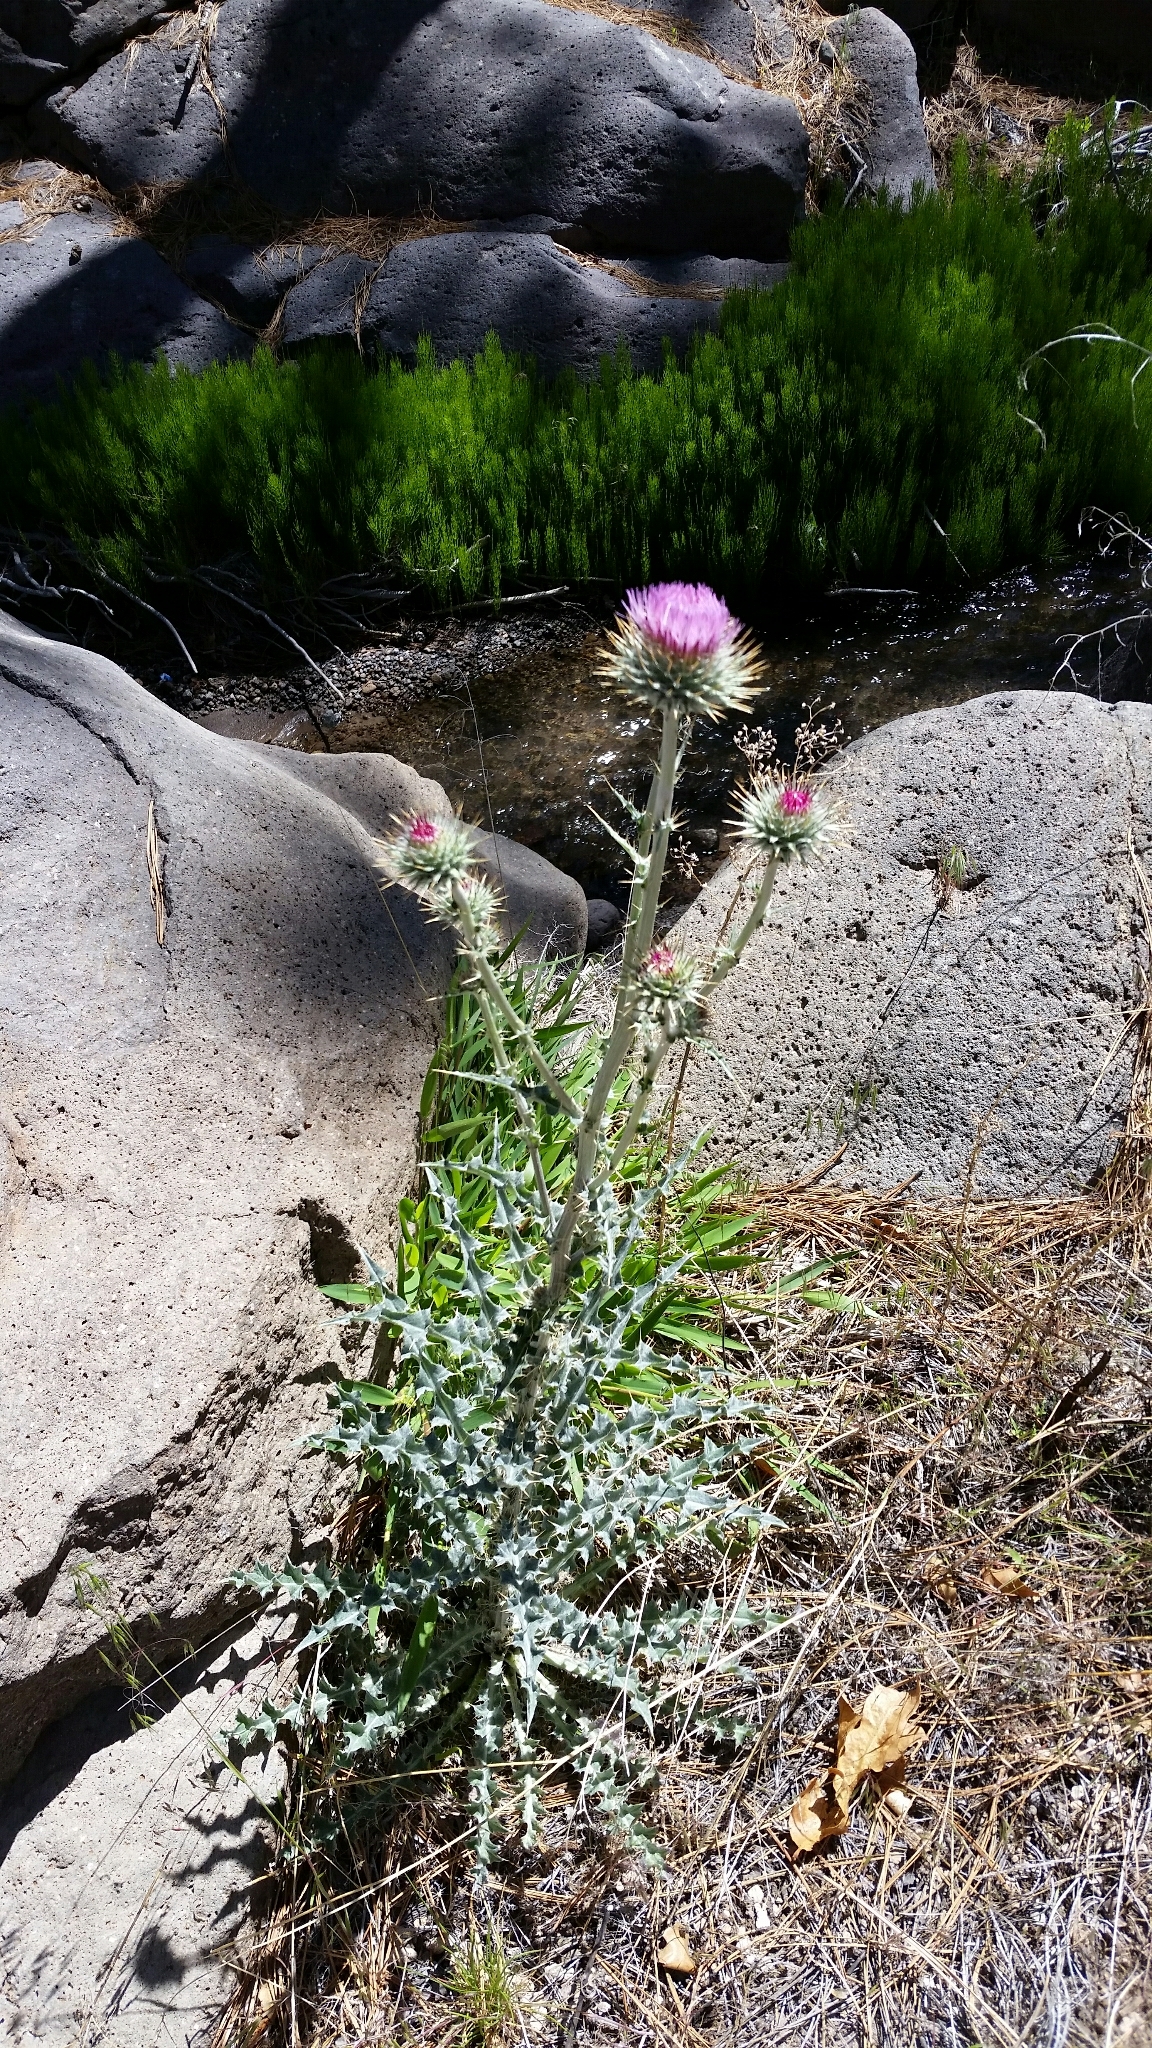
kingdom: Plantae
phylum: Tracheophyta
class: Magnoliopsida
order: Asterales
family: Asteraceae
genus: Cirsium
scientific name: Cirsium neomexicanum
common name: New mexico thistle
